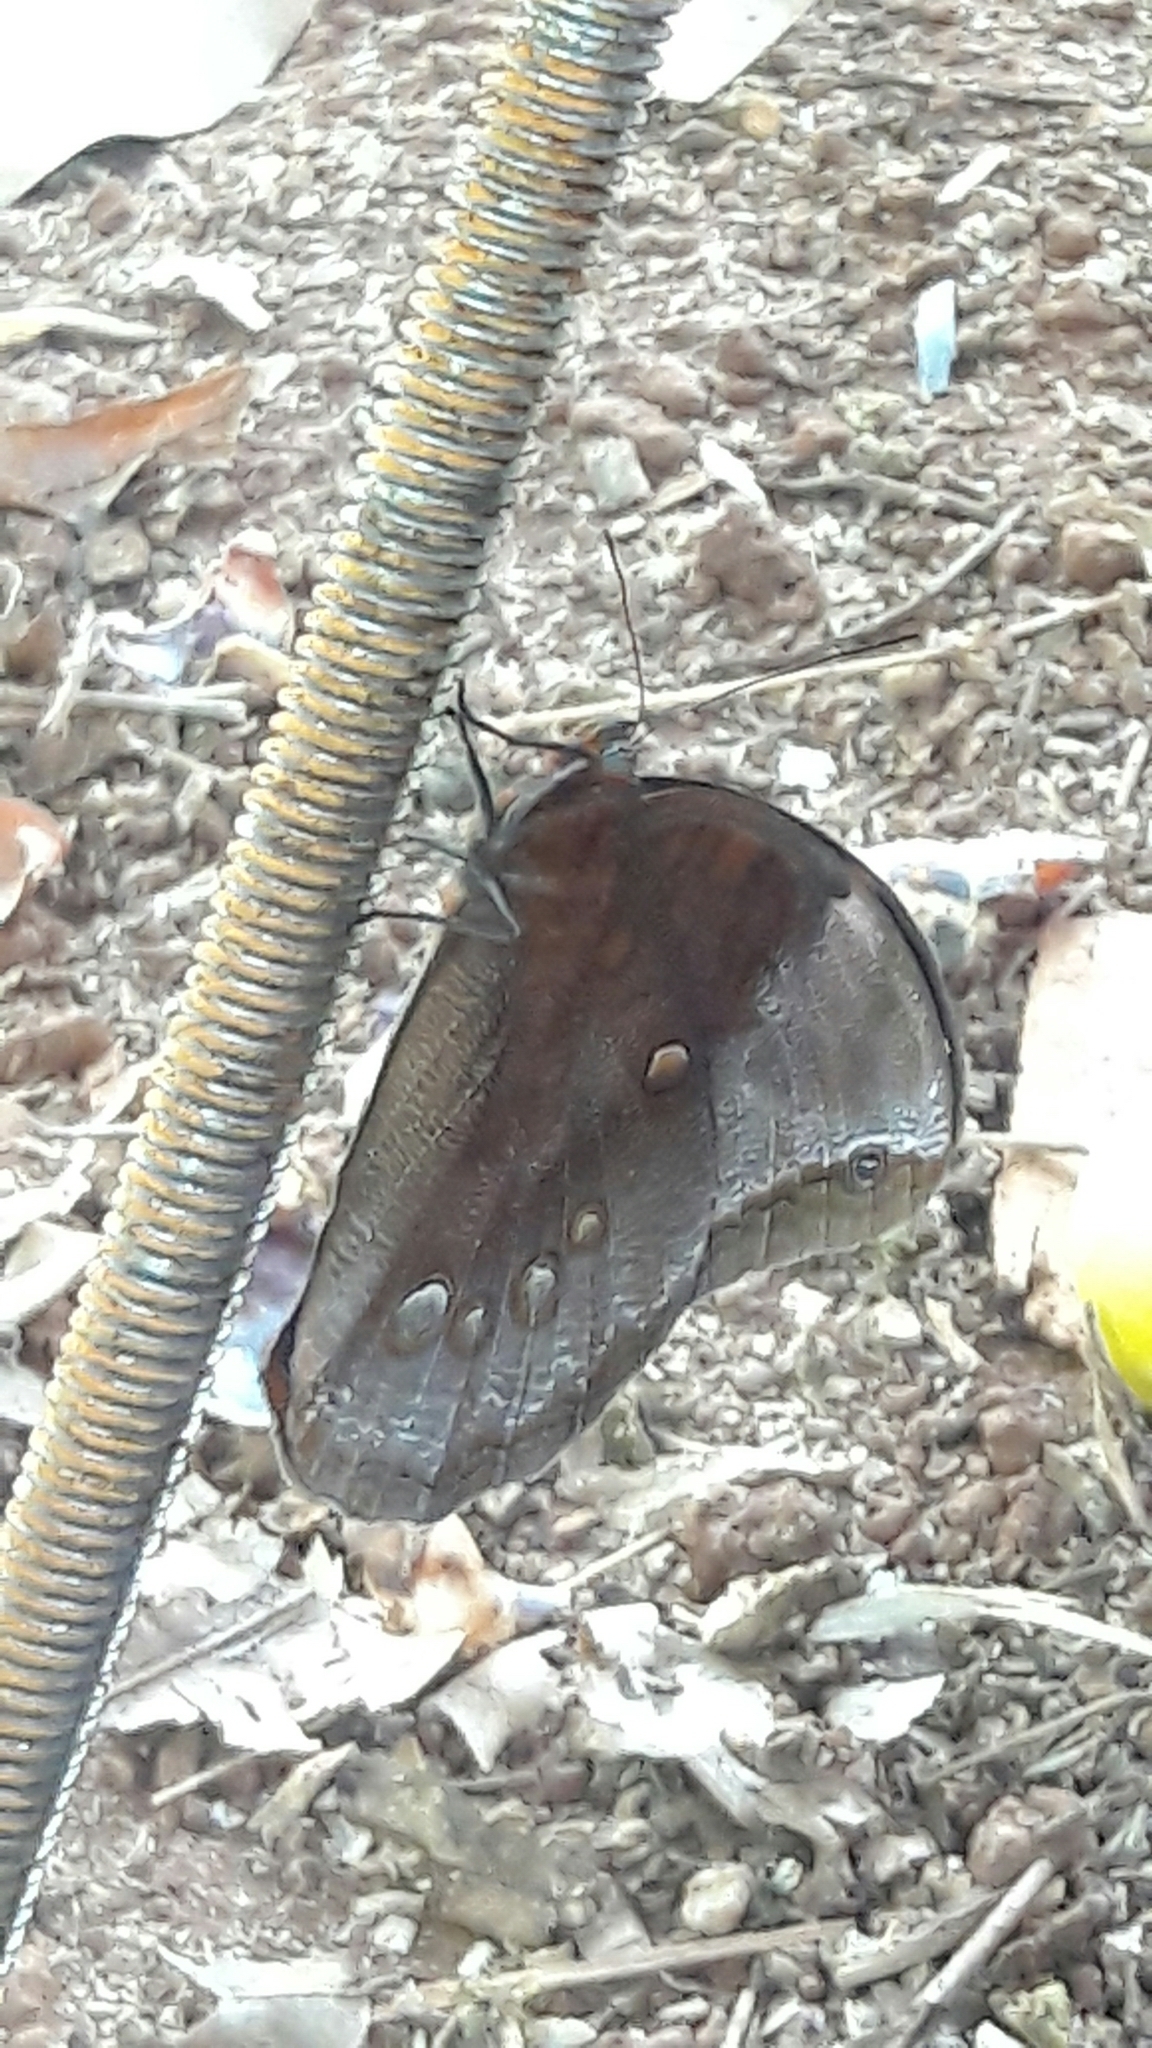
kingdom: Animalia
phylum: Arthropoda
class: Insecta
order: Lepidoptera
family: Nymphalidae
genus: Catoblepia
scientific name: Catoblepia berecynthia
